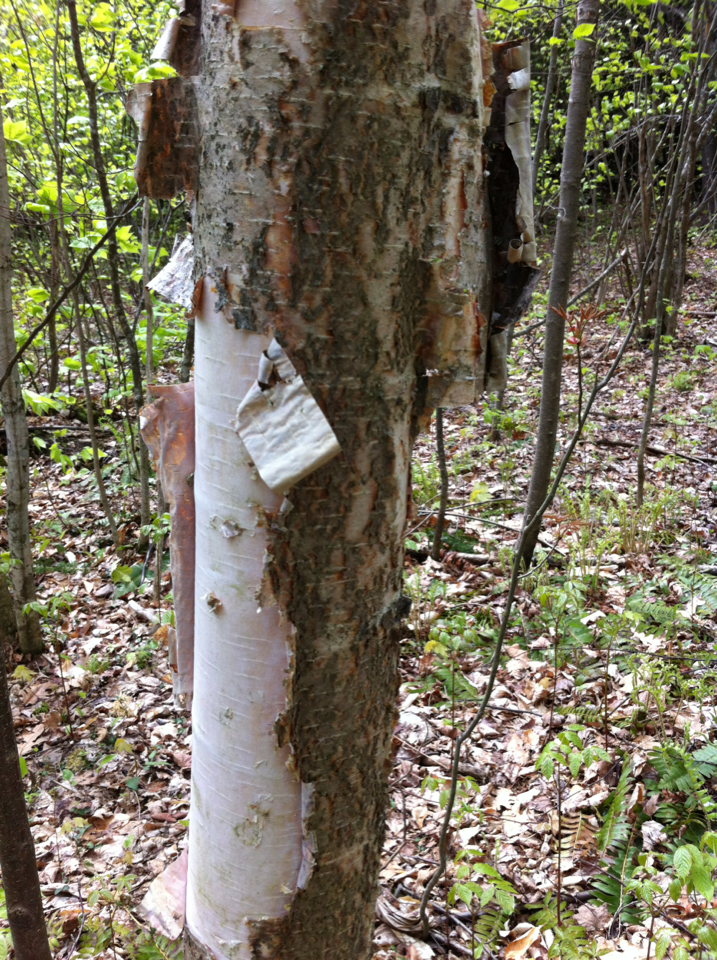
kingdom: Plantae
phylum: Tracheophyta
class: Magnoliopsida
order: Fagales
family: Betulaceae
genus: Betula
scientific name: Betula papyrifera
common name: Paper birch
